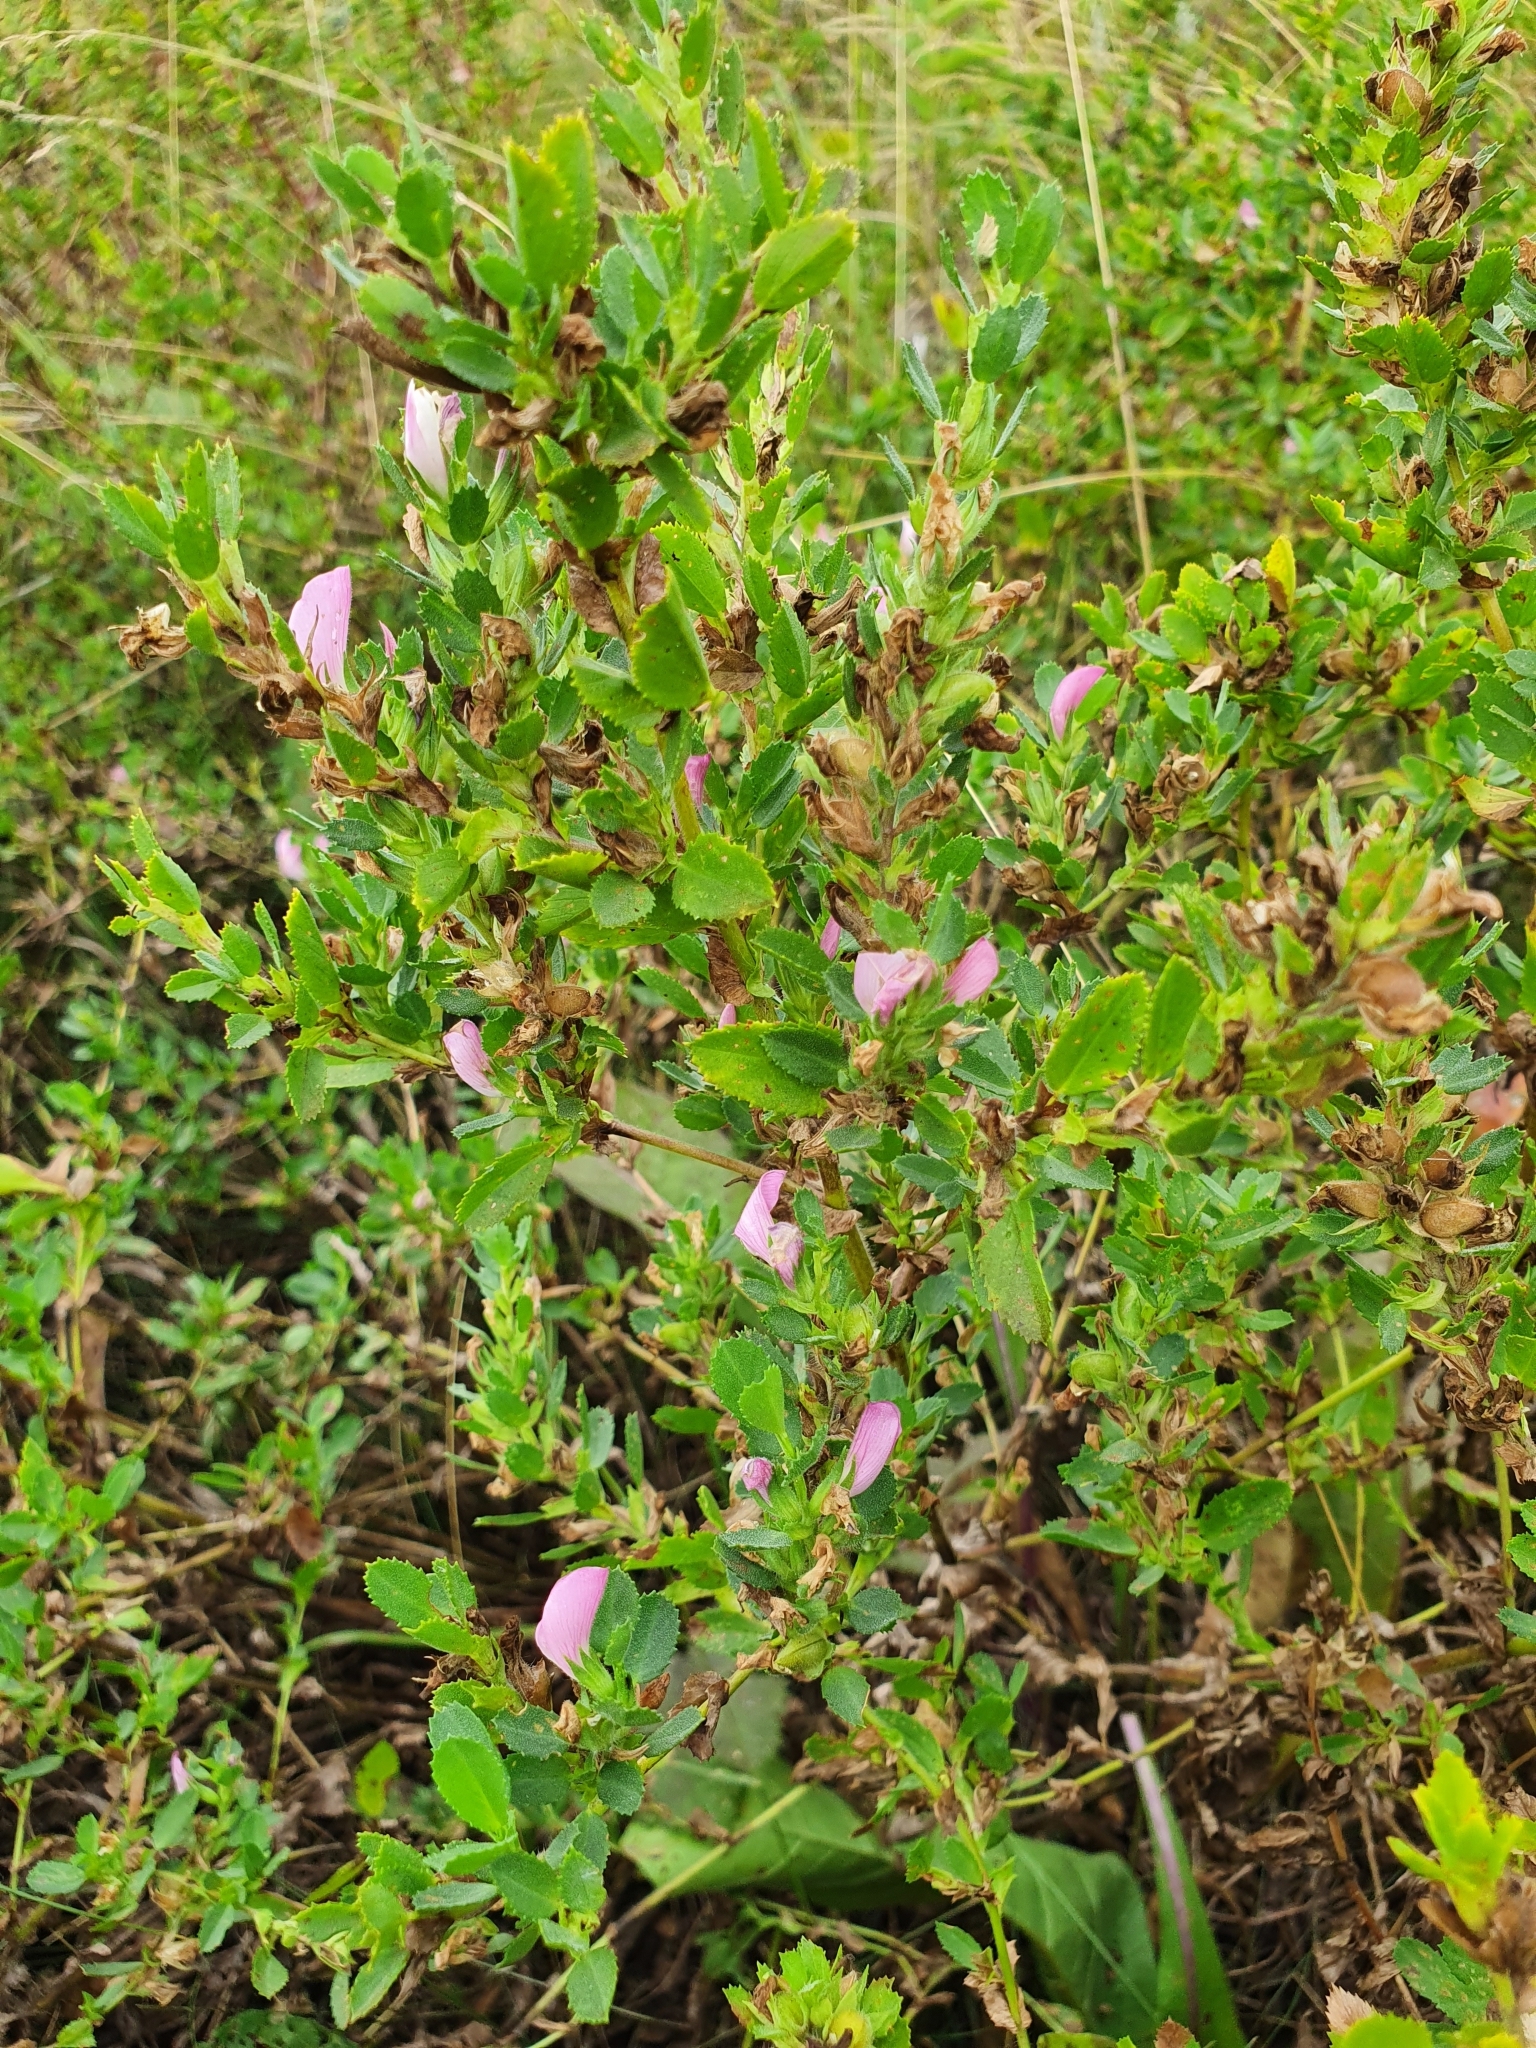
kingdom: Plantae
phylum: Tracheophyta
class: Magnoliopsida
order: Fabales
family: Fabaceae
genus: Ononis
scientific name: Ononis arvensis
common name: Field restharrow
